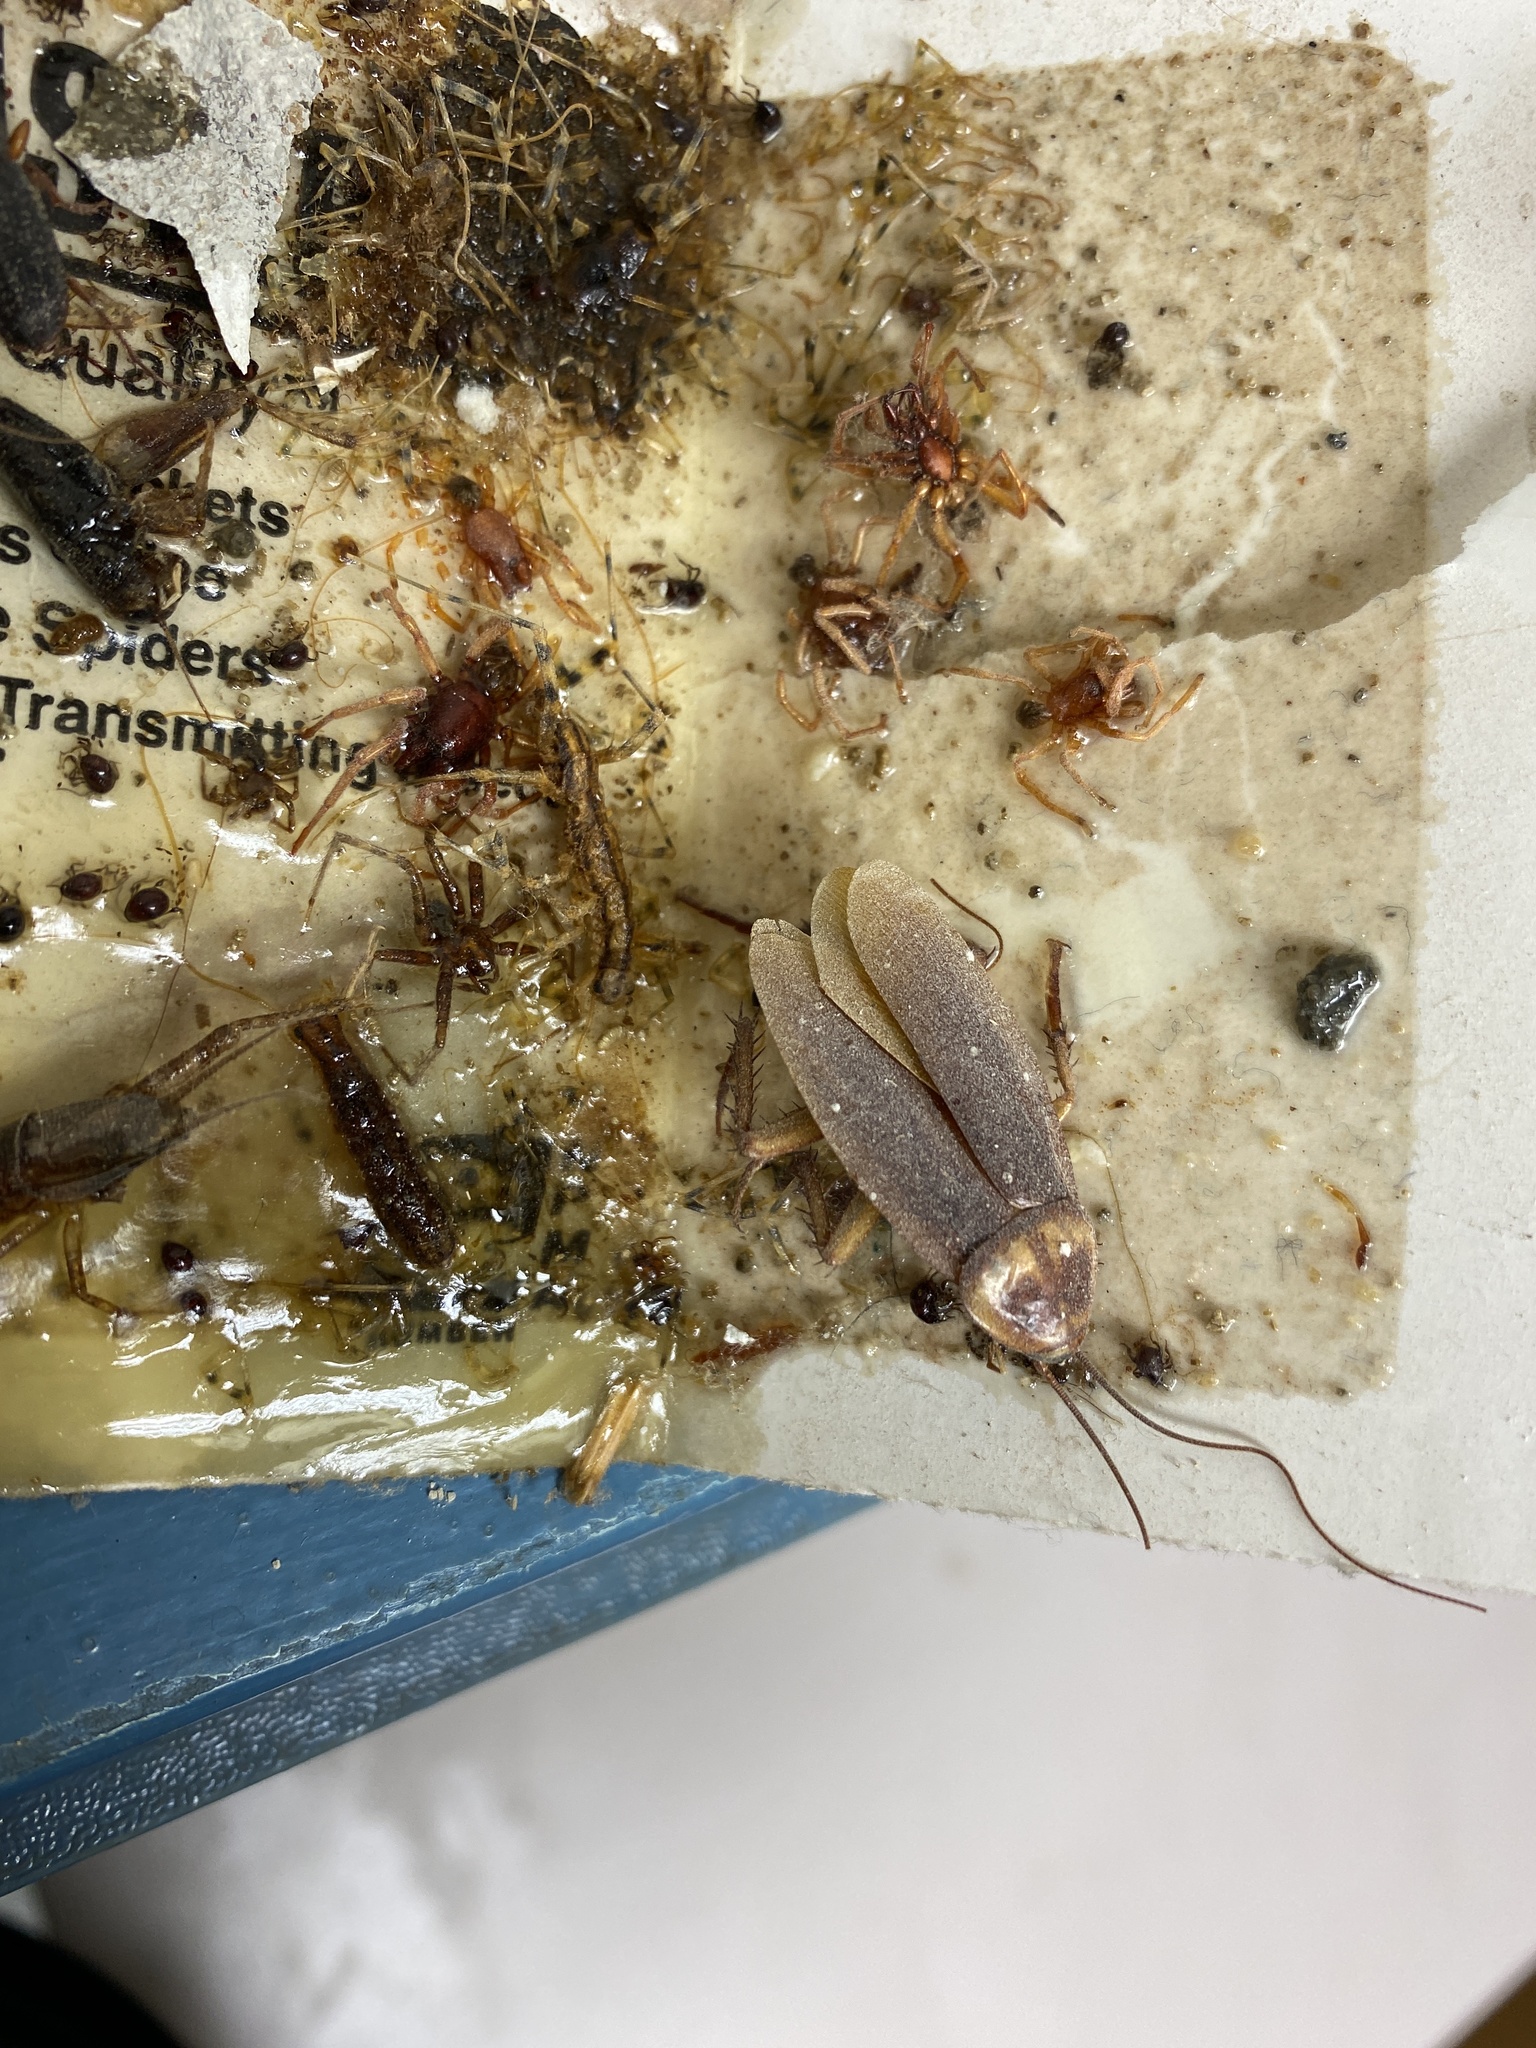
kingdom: Animalia
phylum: Arthropoda
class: Insecta
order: Blattodea
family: Blattidae
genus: Periplaneta
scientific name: Periplaneta americana
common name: American cockroach
